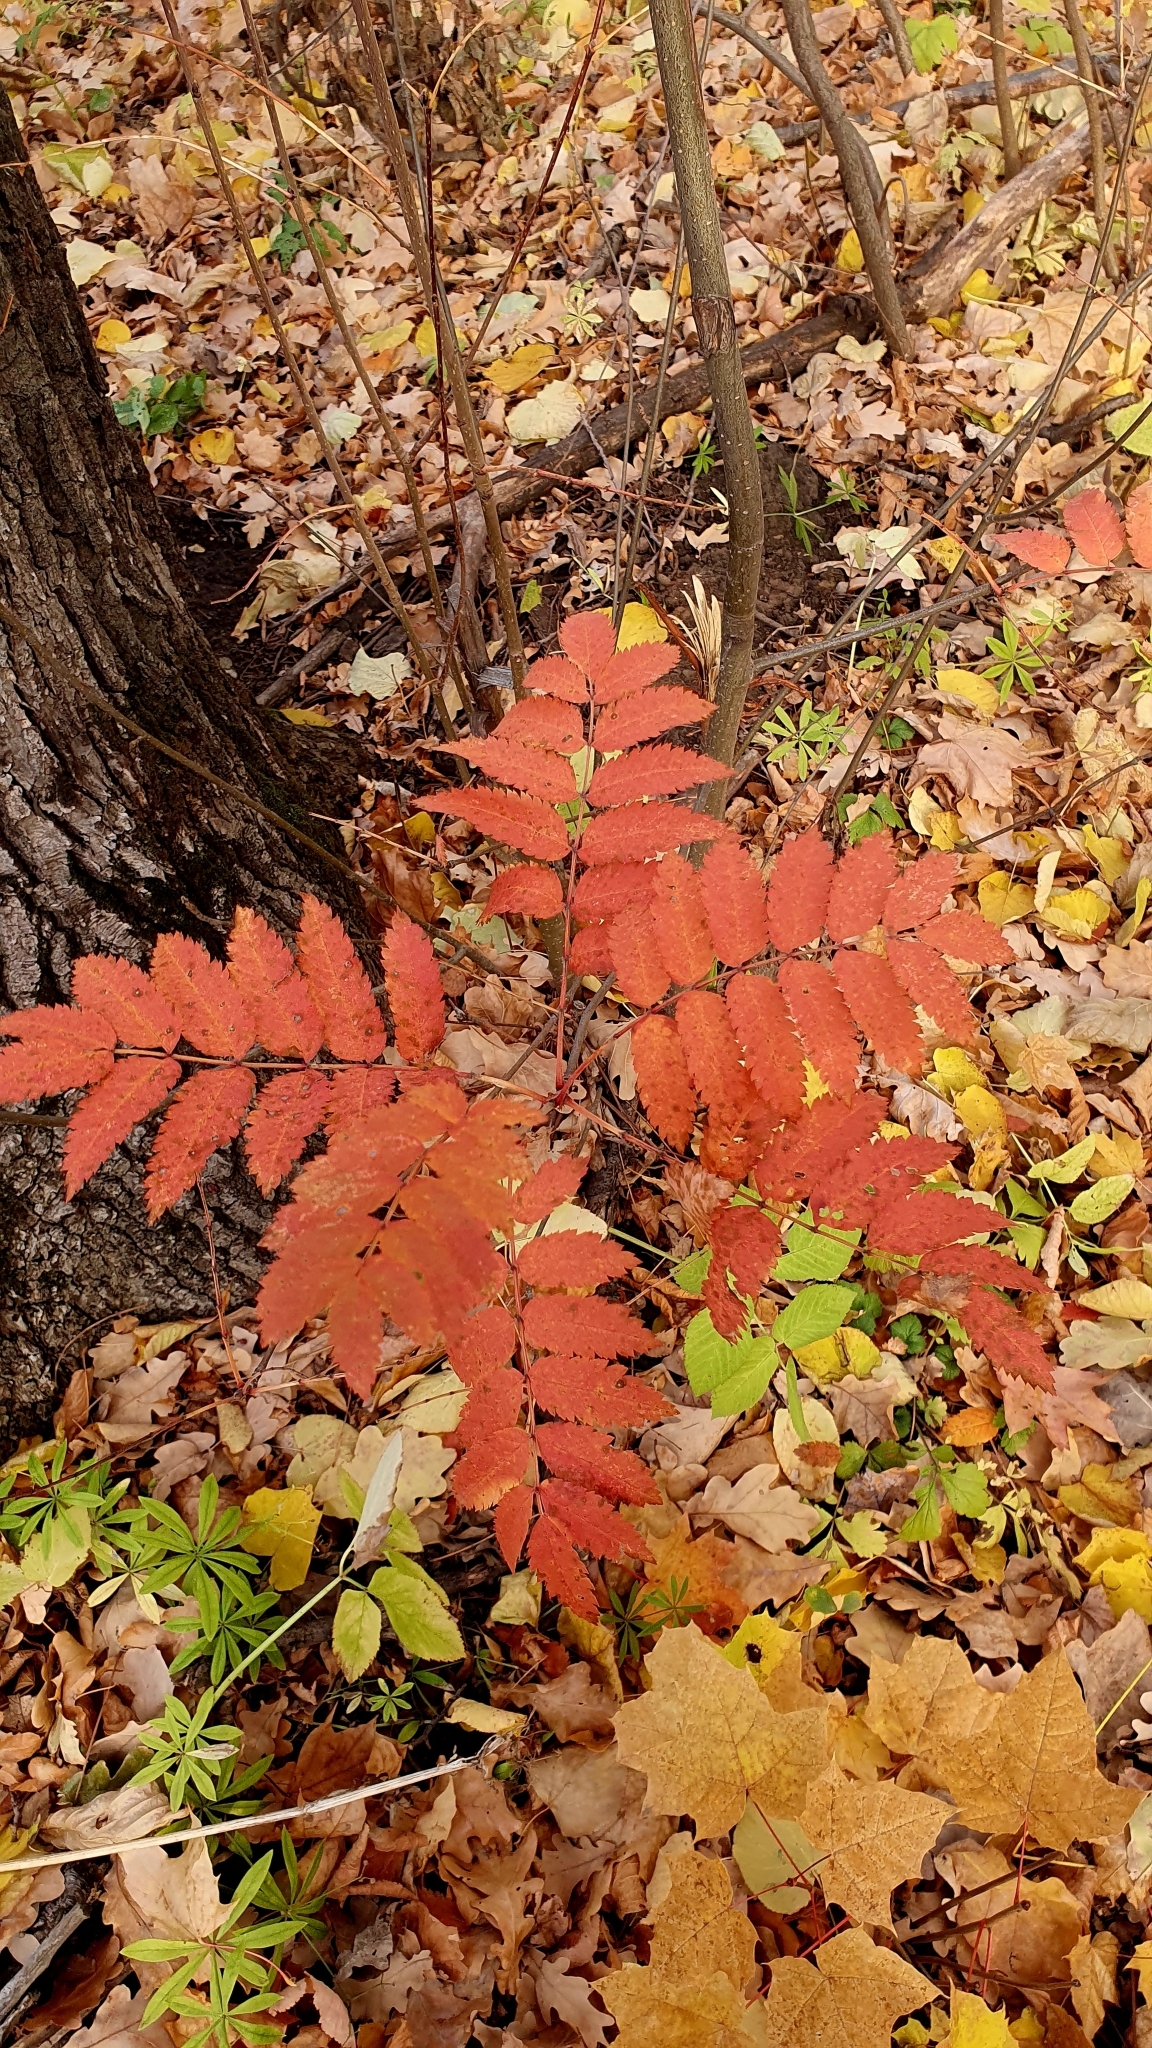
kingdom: Plantae
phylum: Tracheophyta
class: Magnoliopsida
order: Rosales
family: Rosaceae
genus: Sorbus
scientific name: Sorbus aucuparia
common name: Rowan
